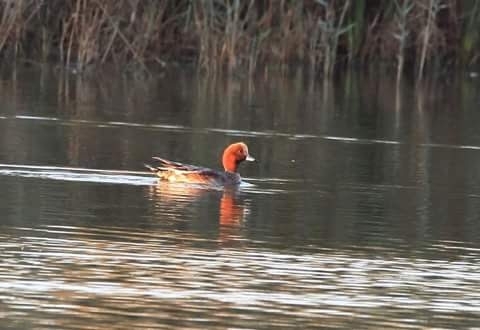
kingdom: Animalia
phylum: Chordata
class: Aves
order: Anseriformes
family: Anatidae
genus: Mareca
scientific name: Mareca penelope
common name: Eurasian wigeon
